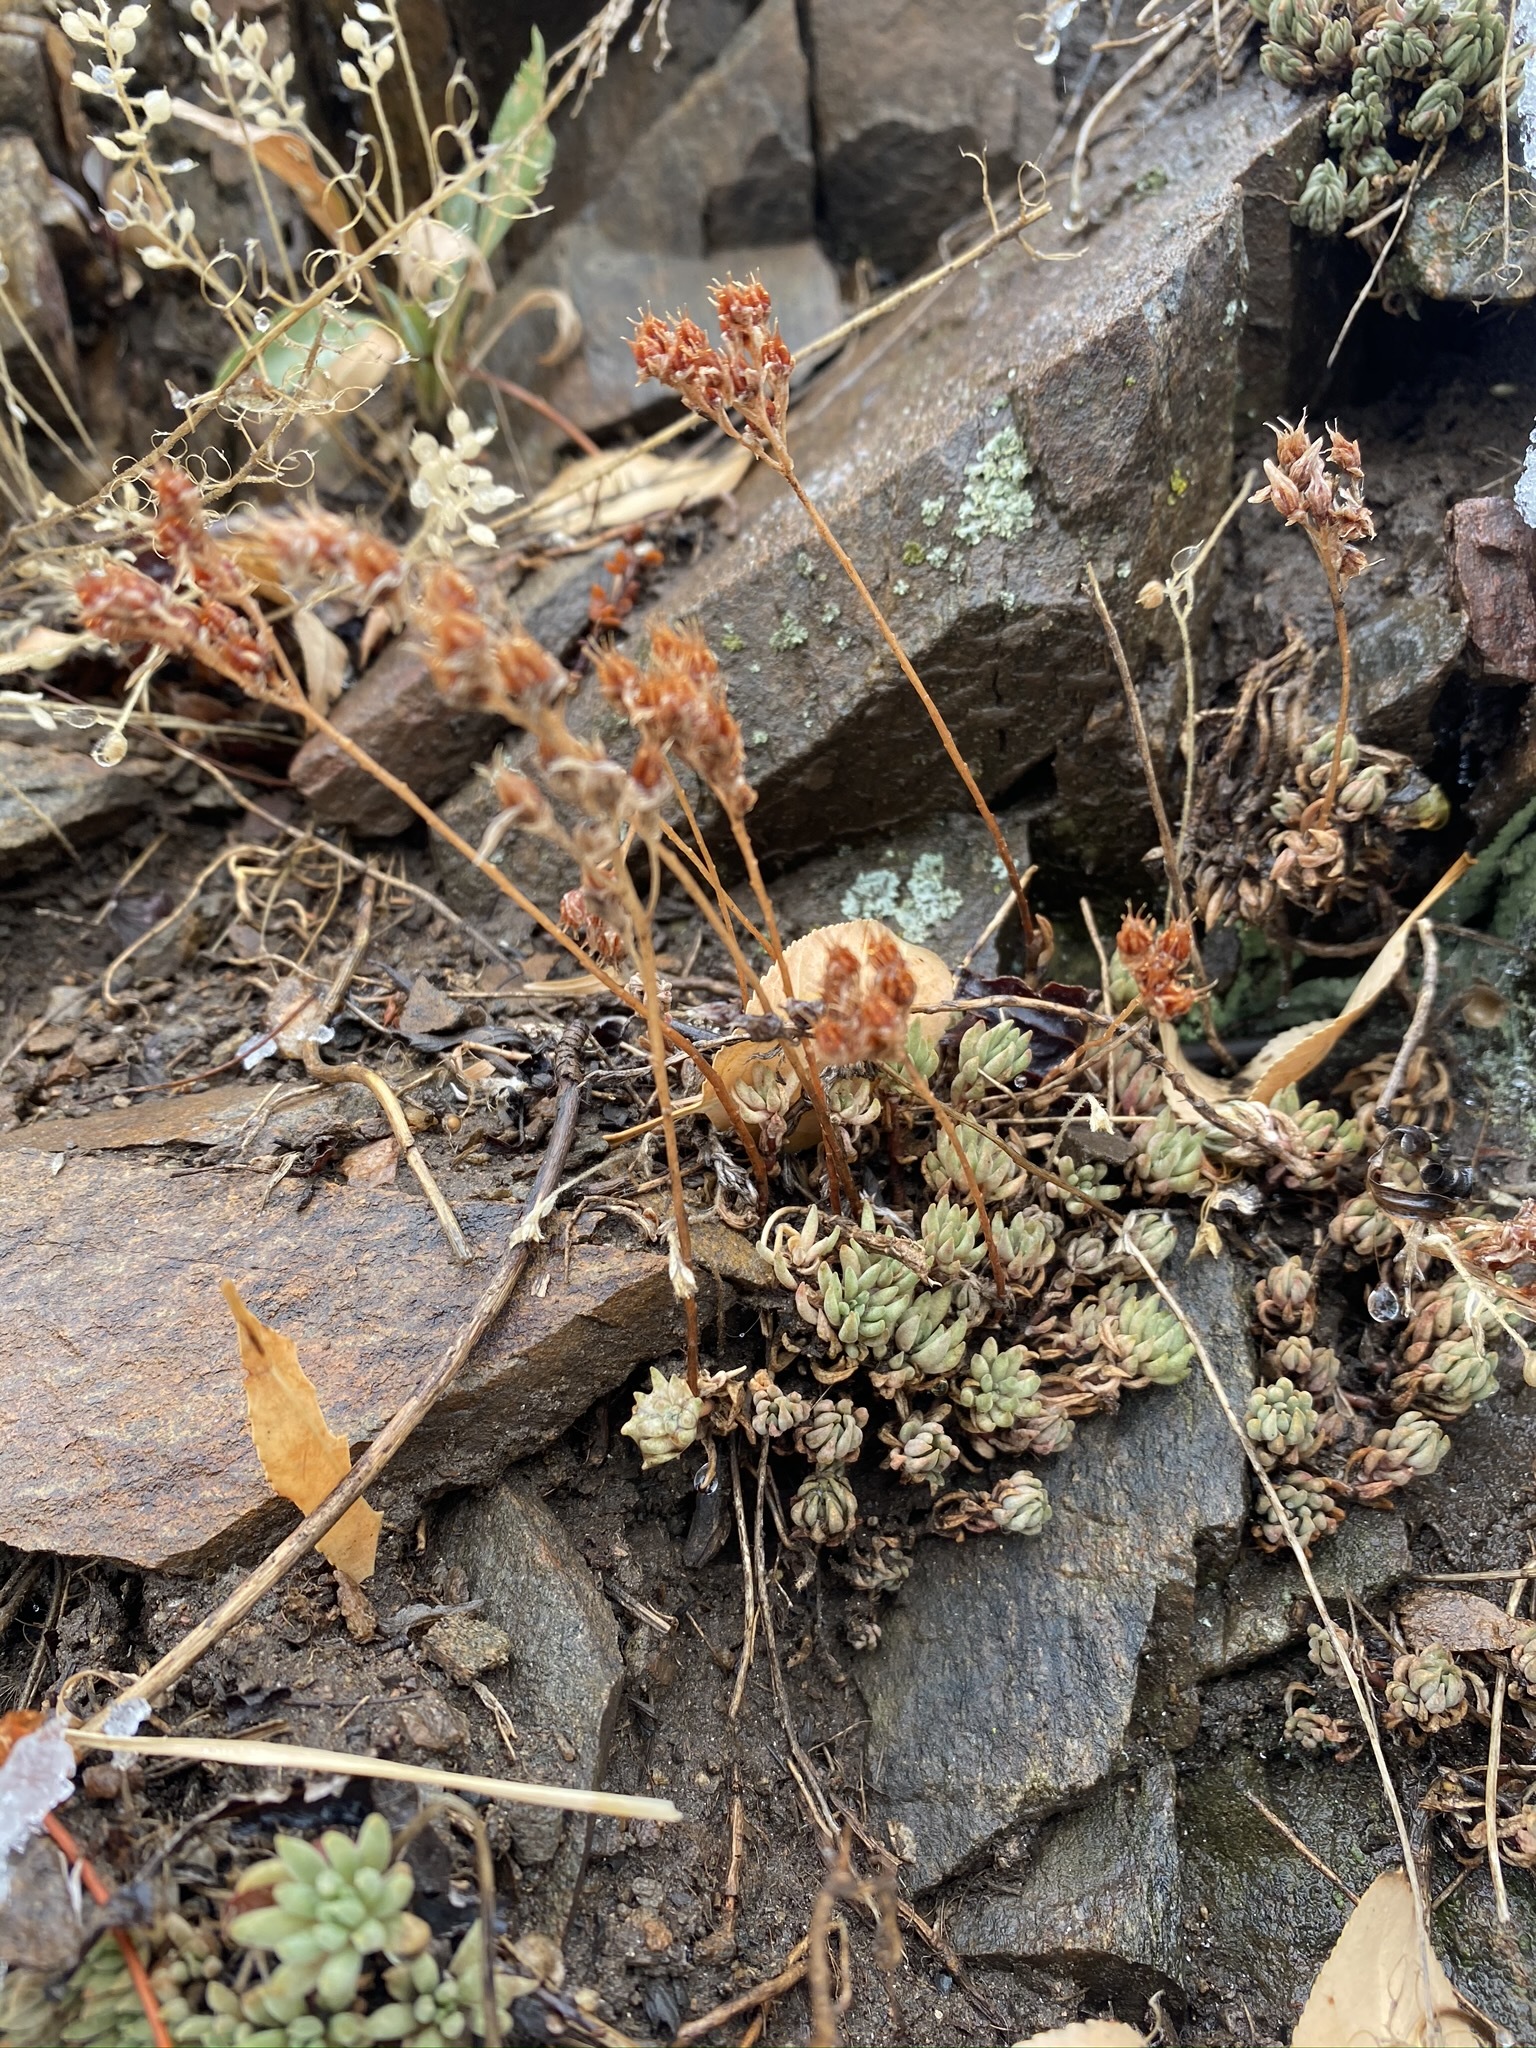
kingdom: Plantae
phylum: Tracheophyta
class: Magnoliopsida
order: Saxifragales
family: Crassulaceae
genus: Sedum
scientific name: Sedum lanceolatum
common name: Common stonecrop
